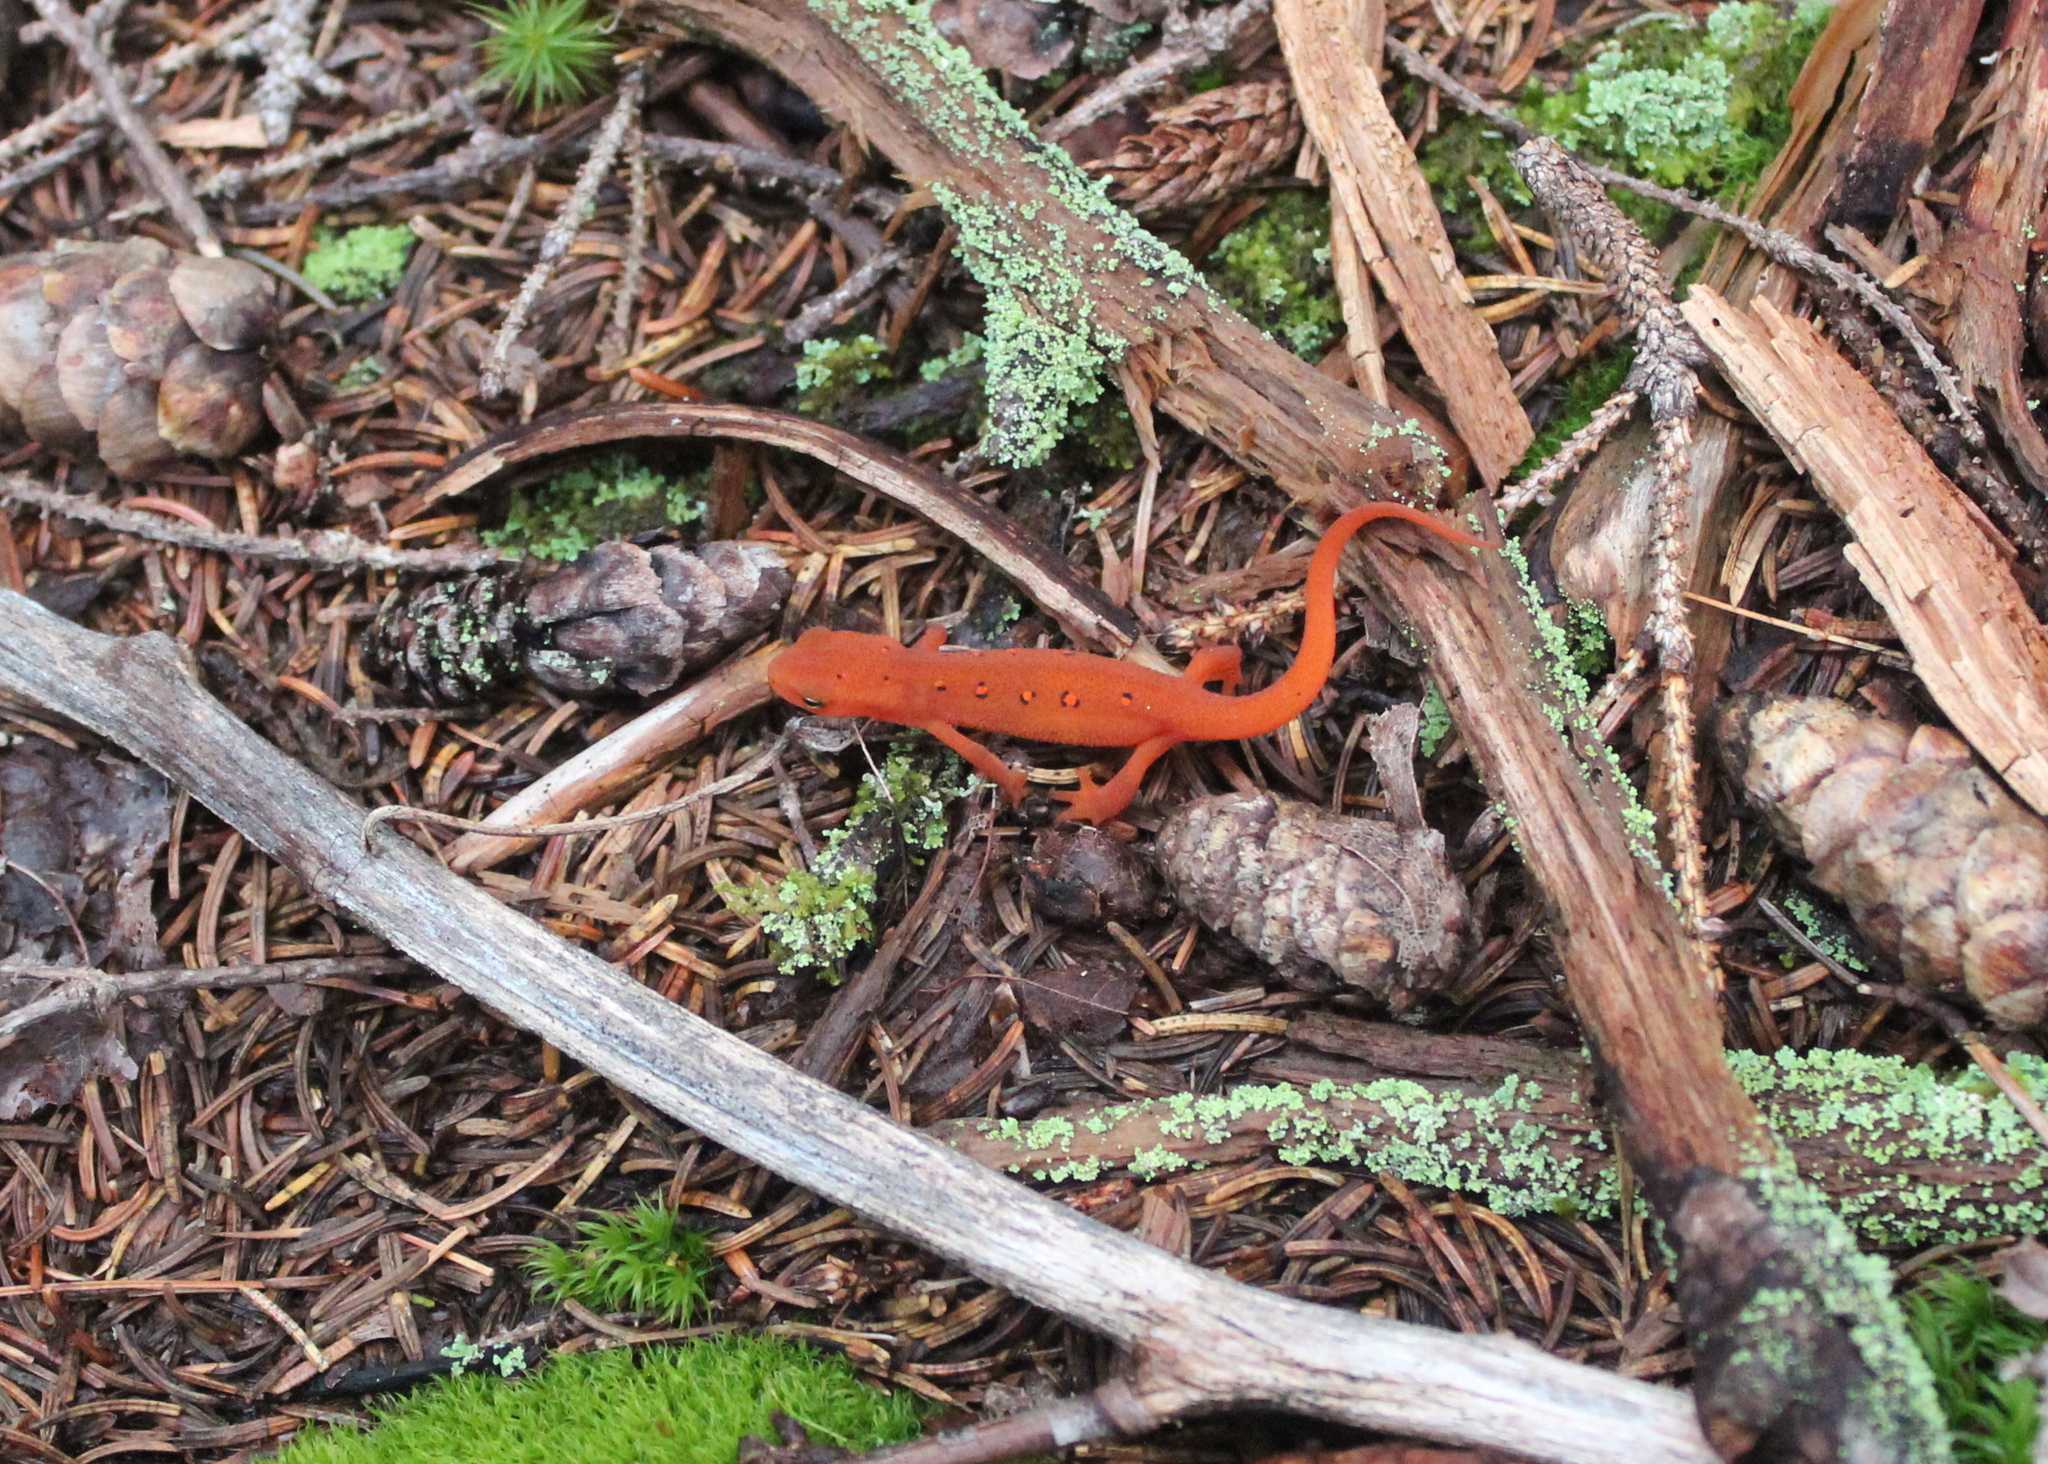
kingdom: Animalia
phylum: Chordata
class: Amphibia
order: Caudata
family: Salamandridae
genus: Notophthalmus
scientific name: Notophthalmus viridescens
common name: Eastern newt
